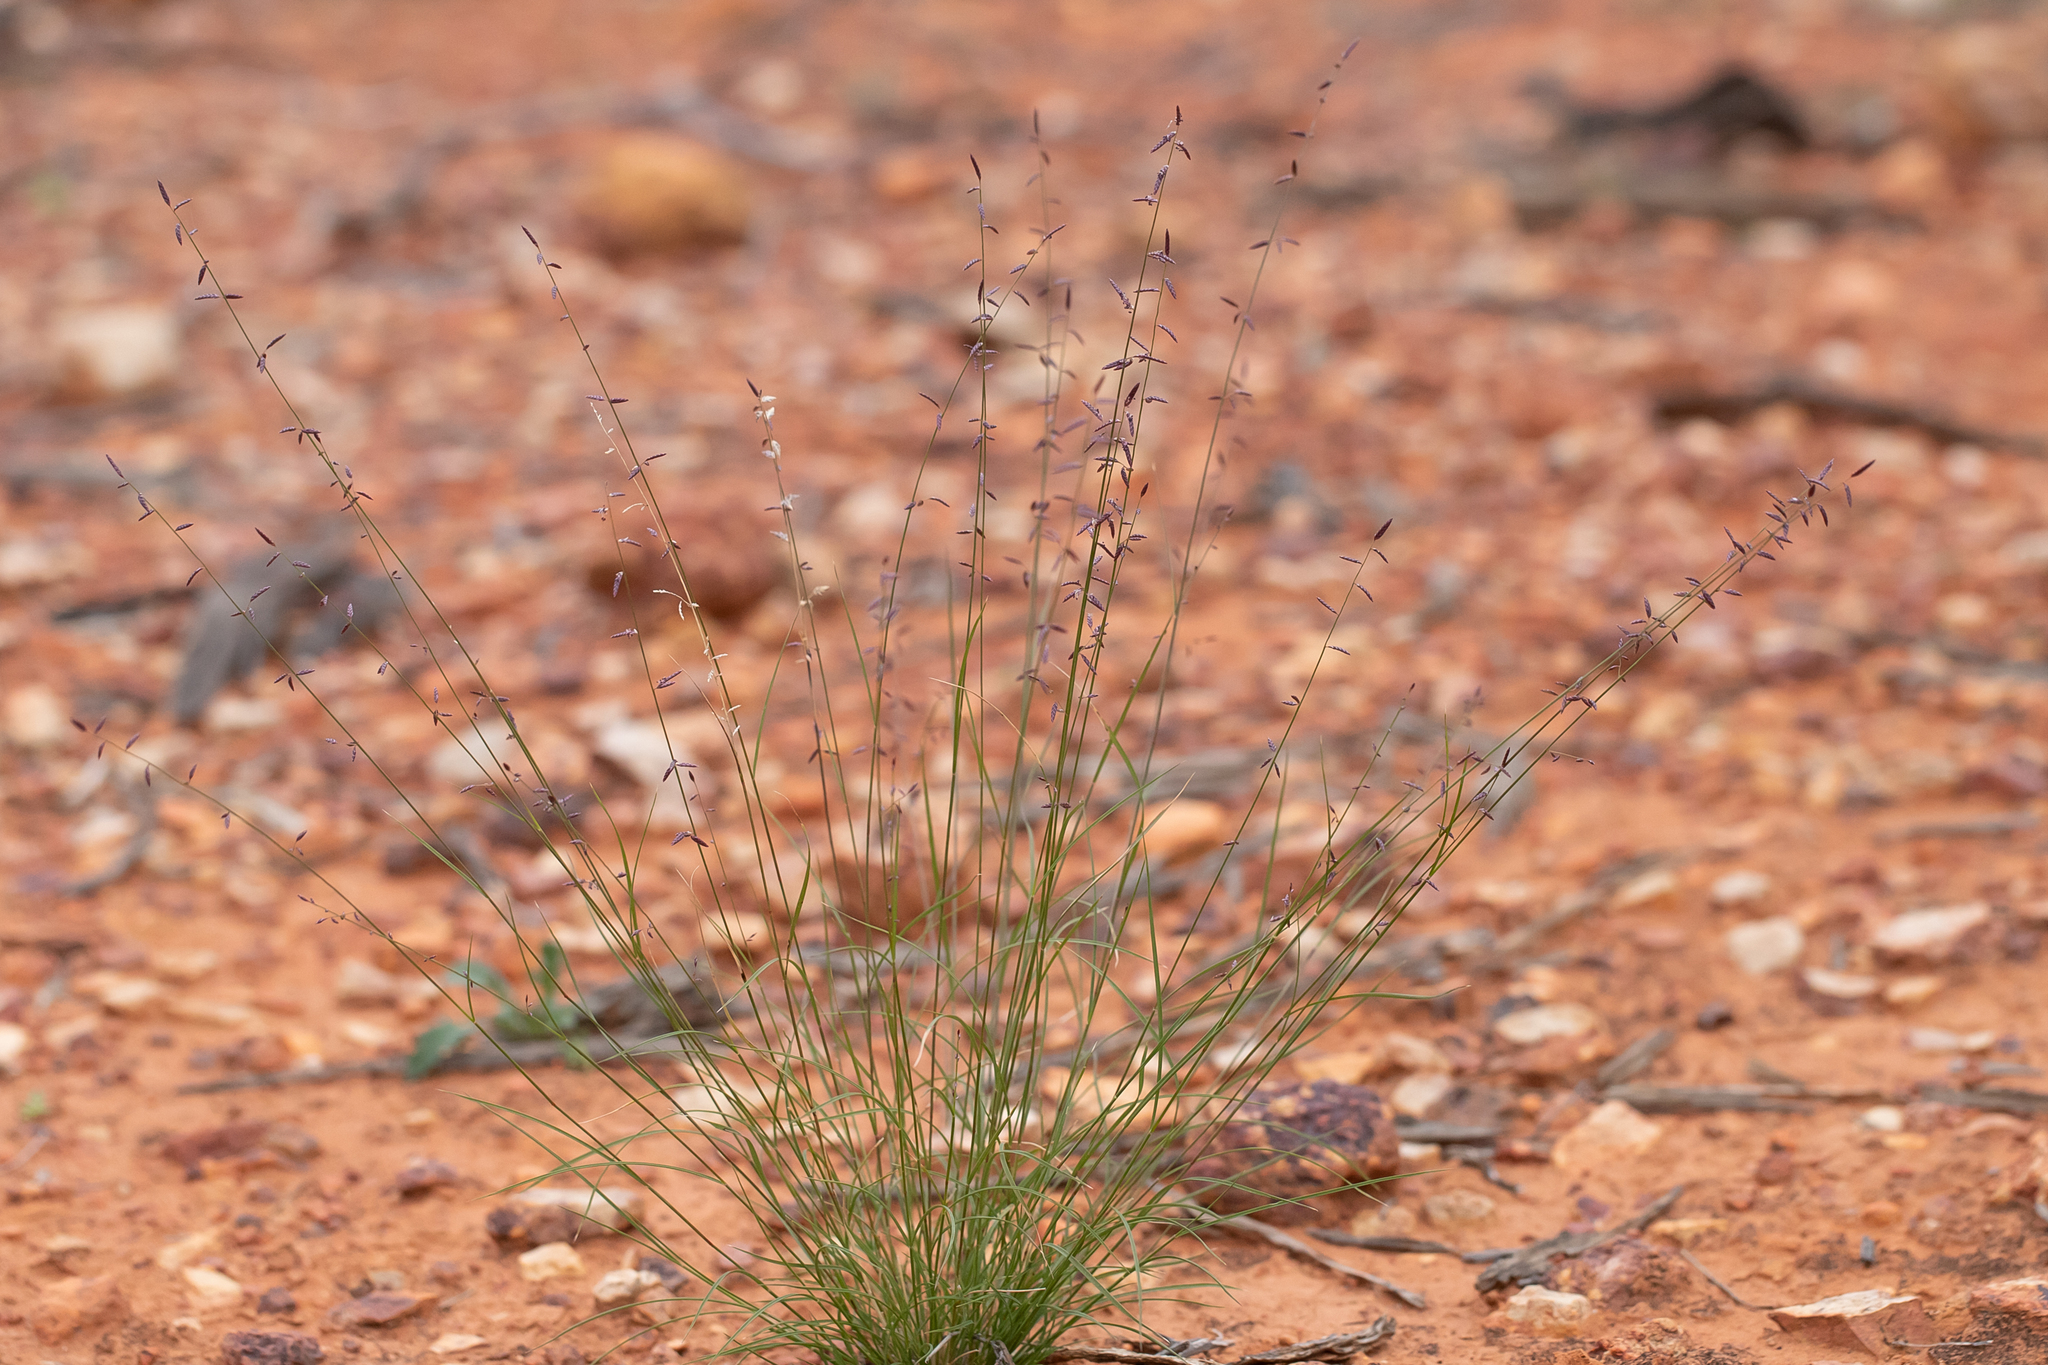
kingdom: Plantae
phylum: Tracheophyta
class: Liliopsida
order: Poales
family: Poaceae
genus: Eragrostis
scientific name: Eragrostis eriopoda
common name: Plain neverfail
